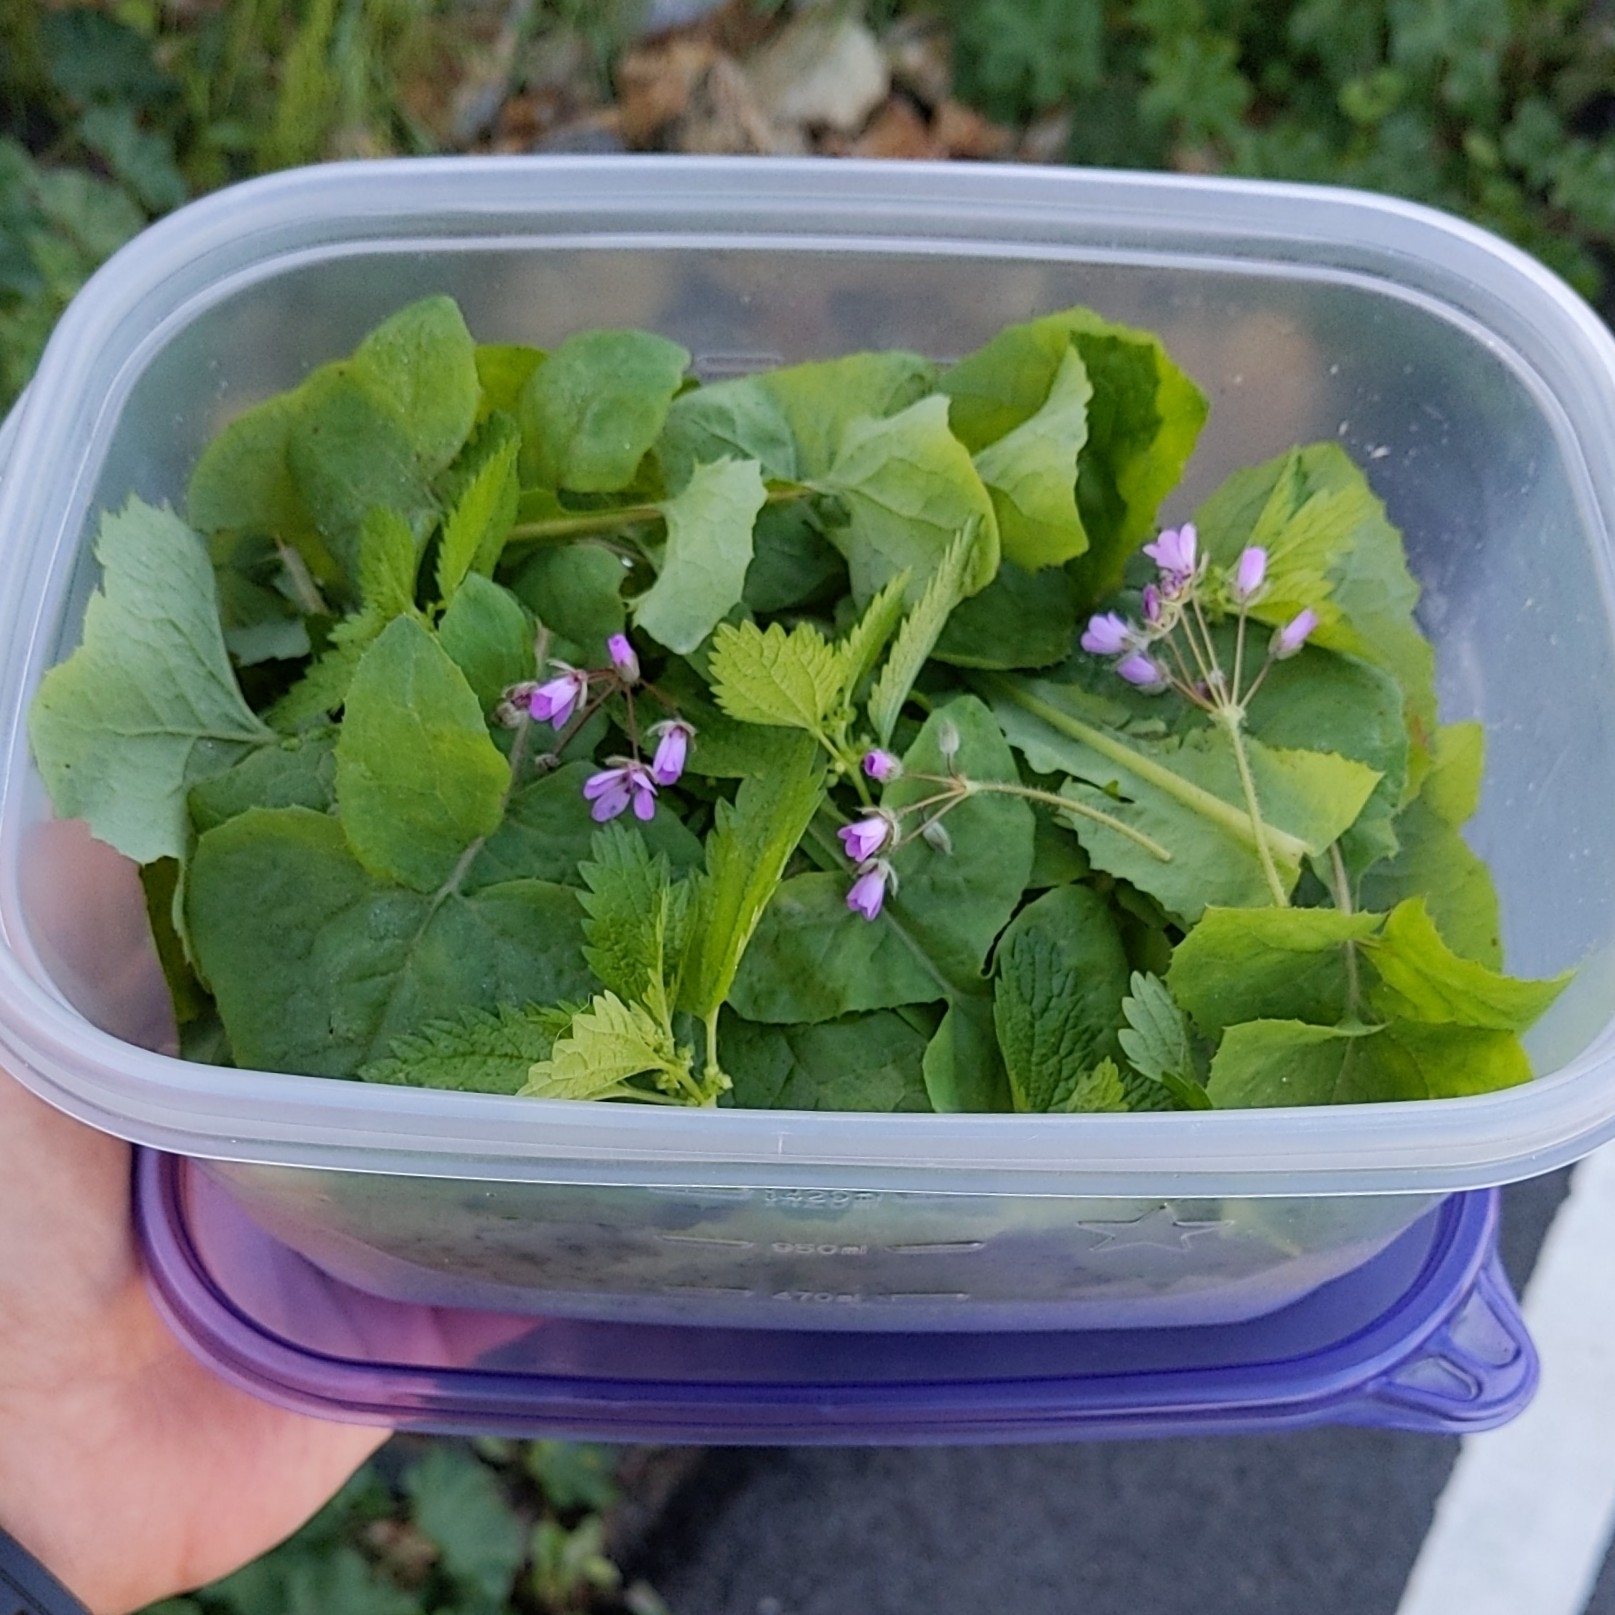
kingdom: Plantae
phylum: Tracheophyta
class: Magnoliopsida
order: Asterales
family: Asteraceae
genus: Sonchus
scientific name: Sonchus oleraceus
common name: Common sowthistle
